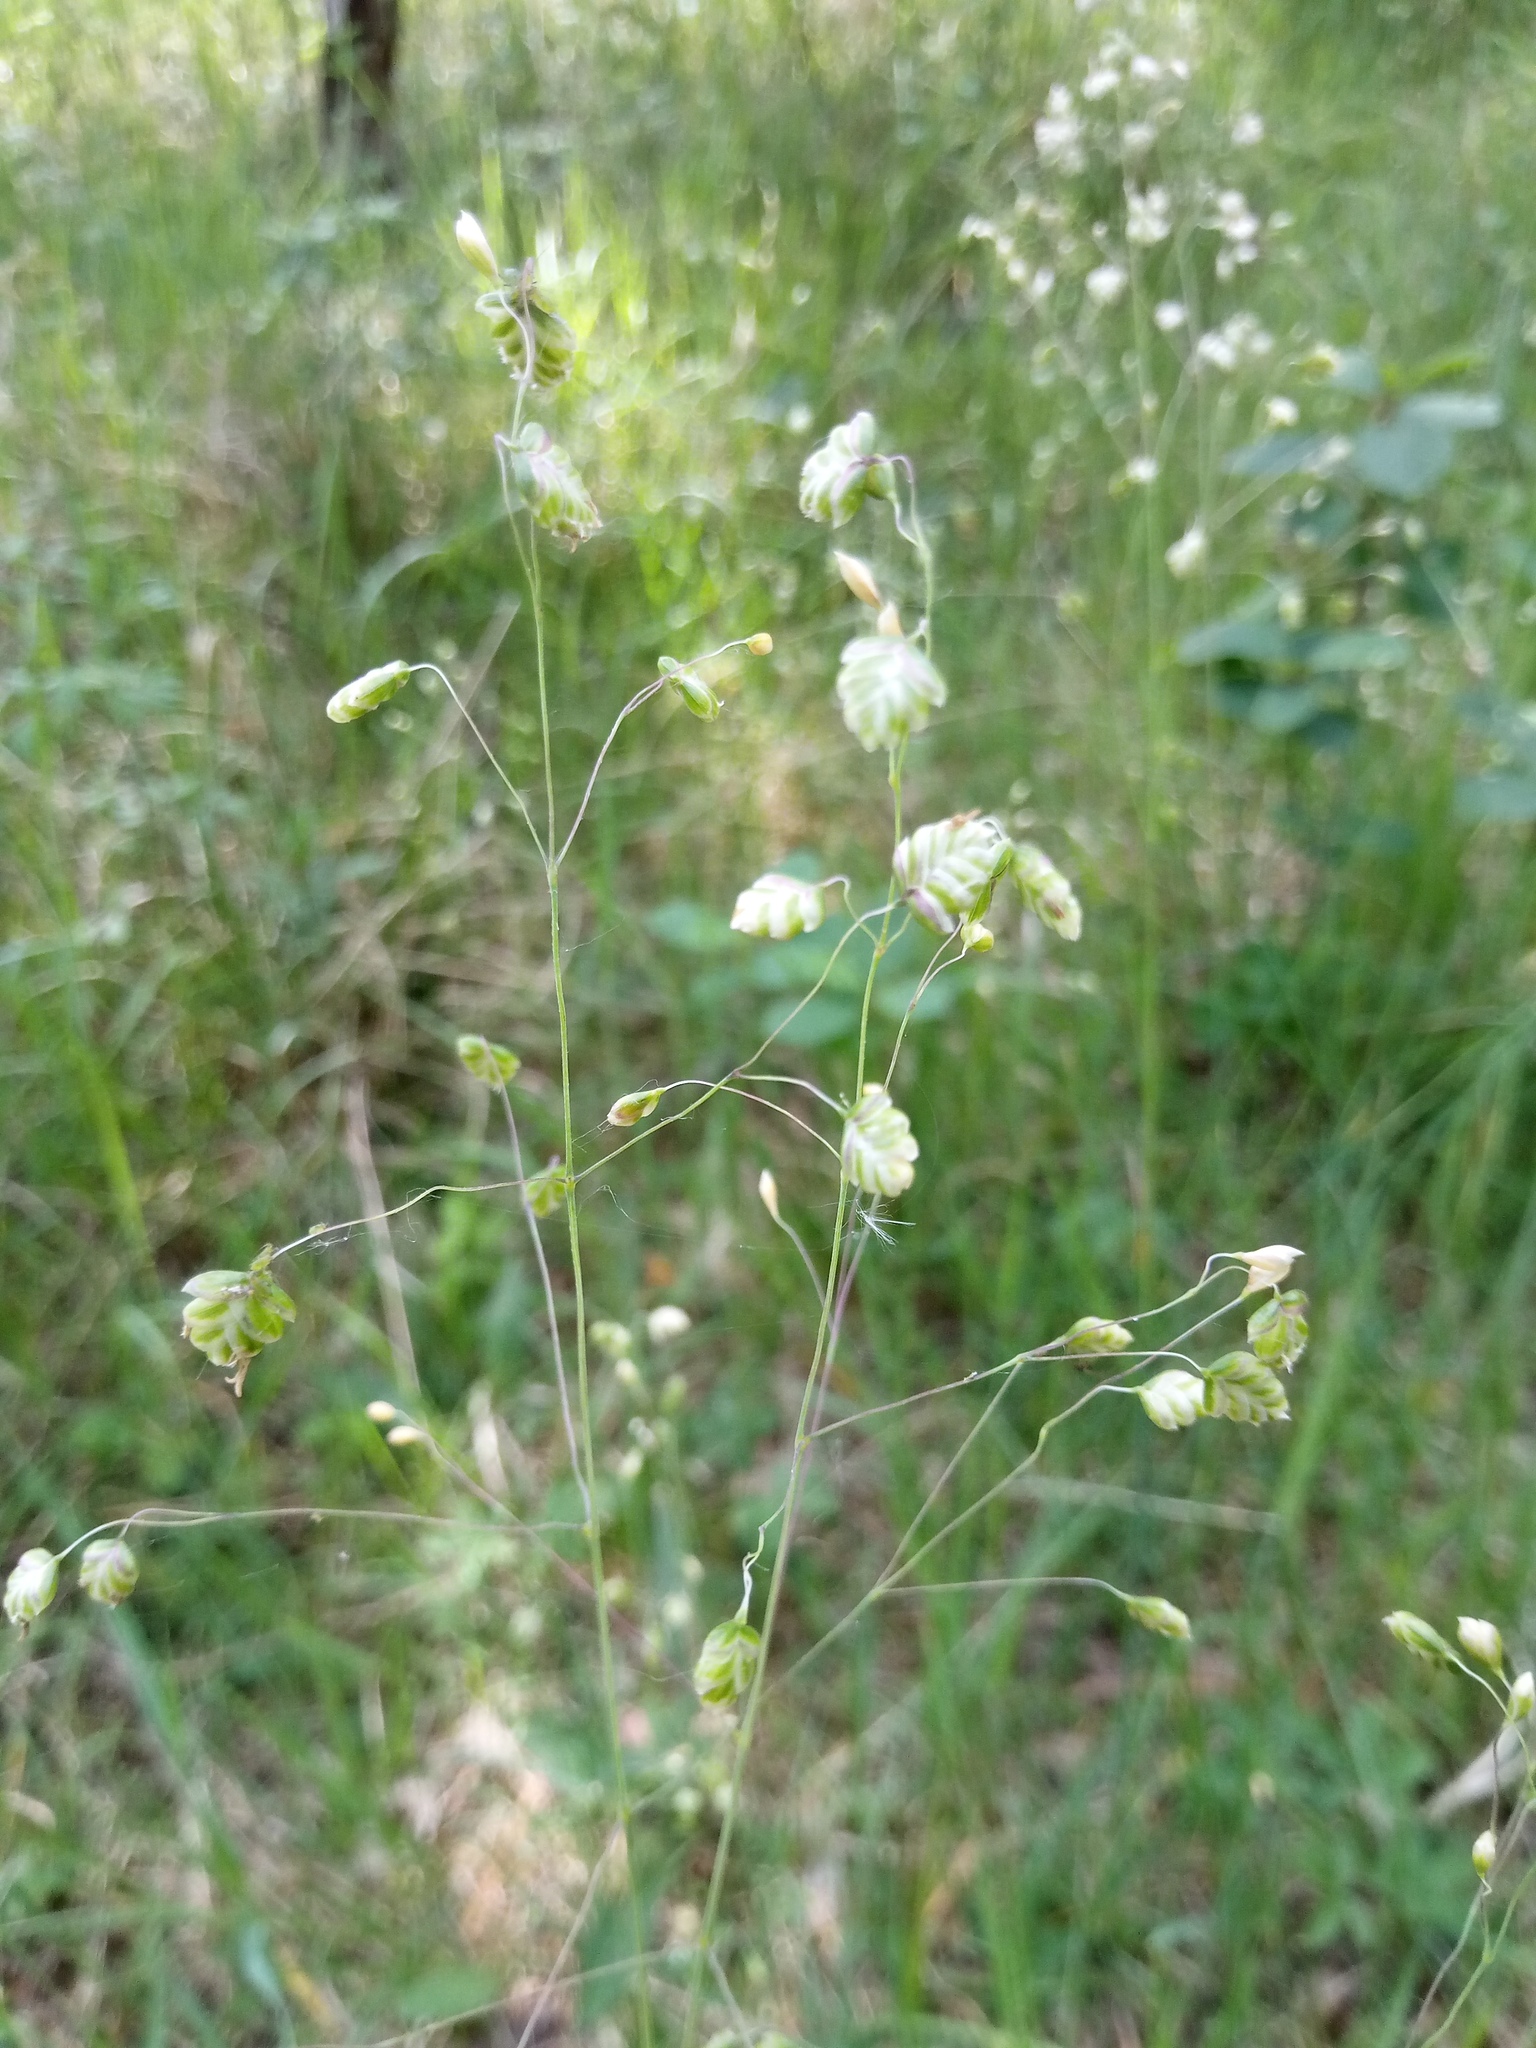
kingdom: Plantae
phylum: Tracheophyta
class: Liliopsida
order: Poales
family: Poaceae
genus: Briza
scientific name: Briza media
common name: Quaking grass
